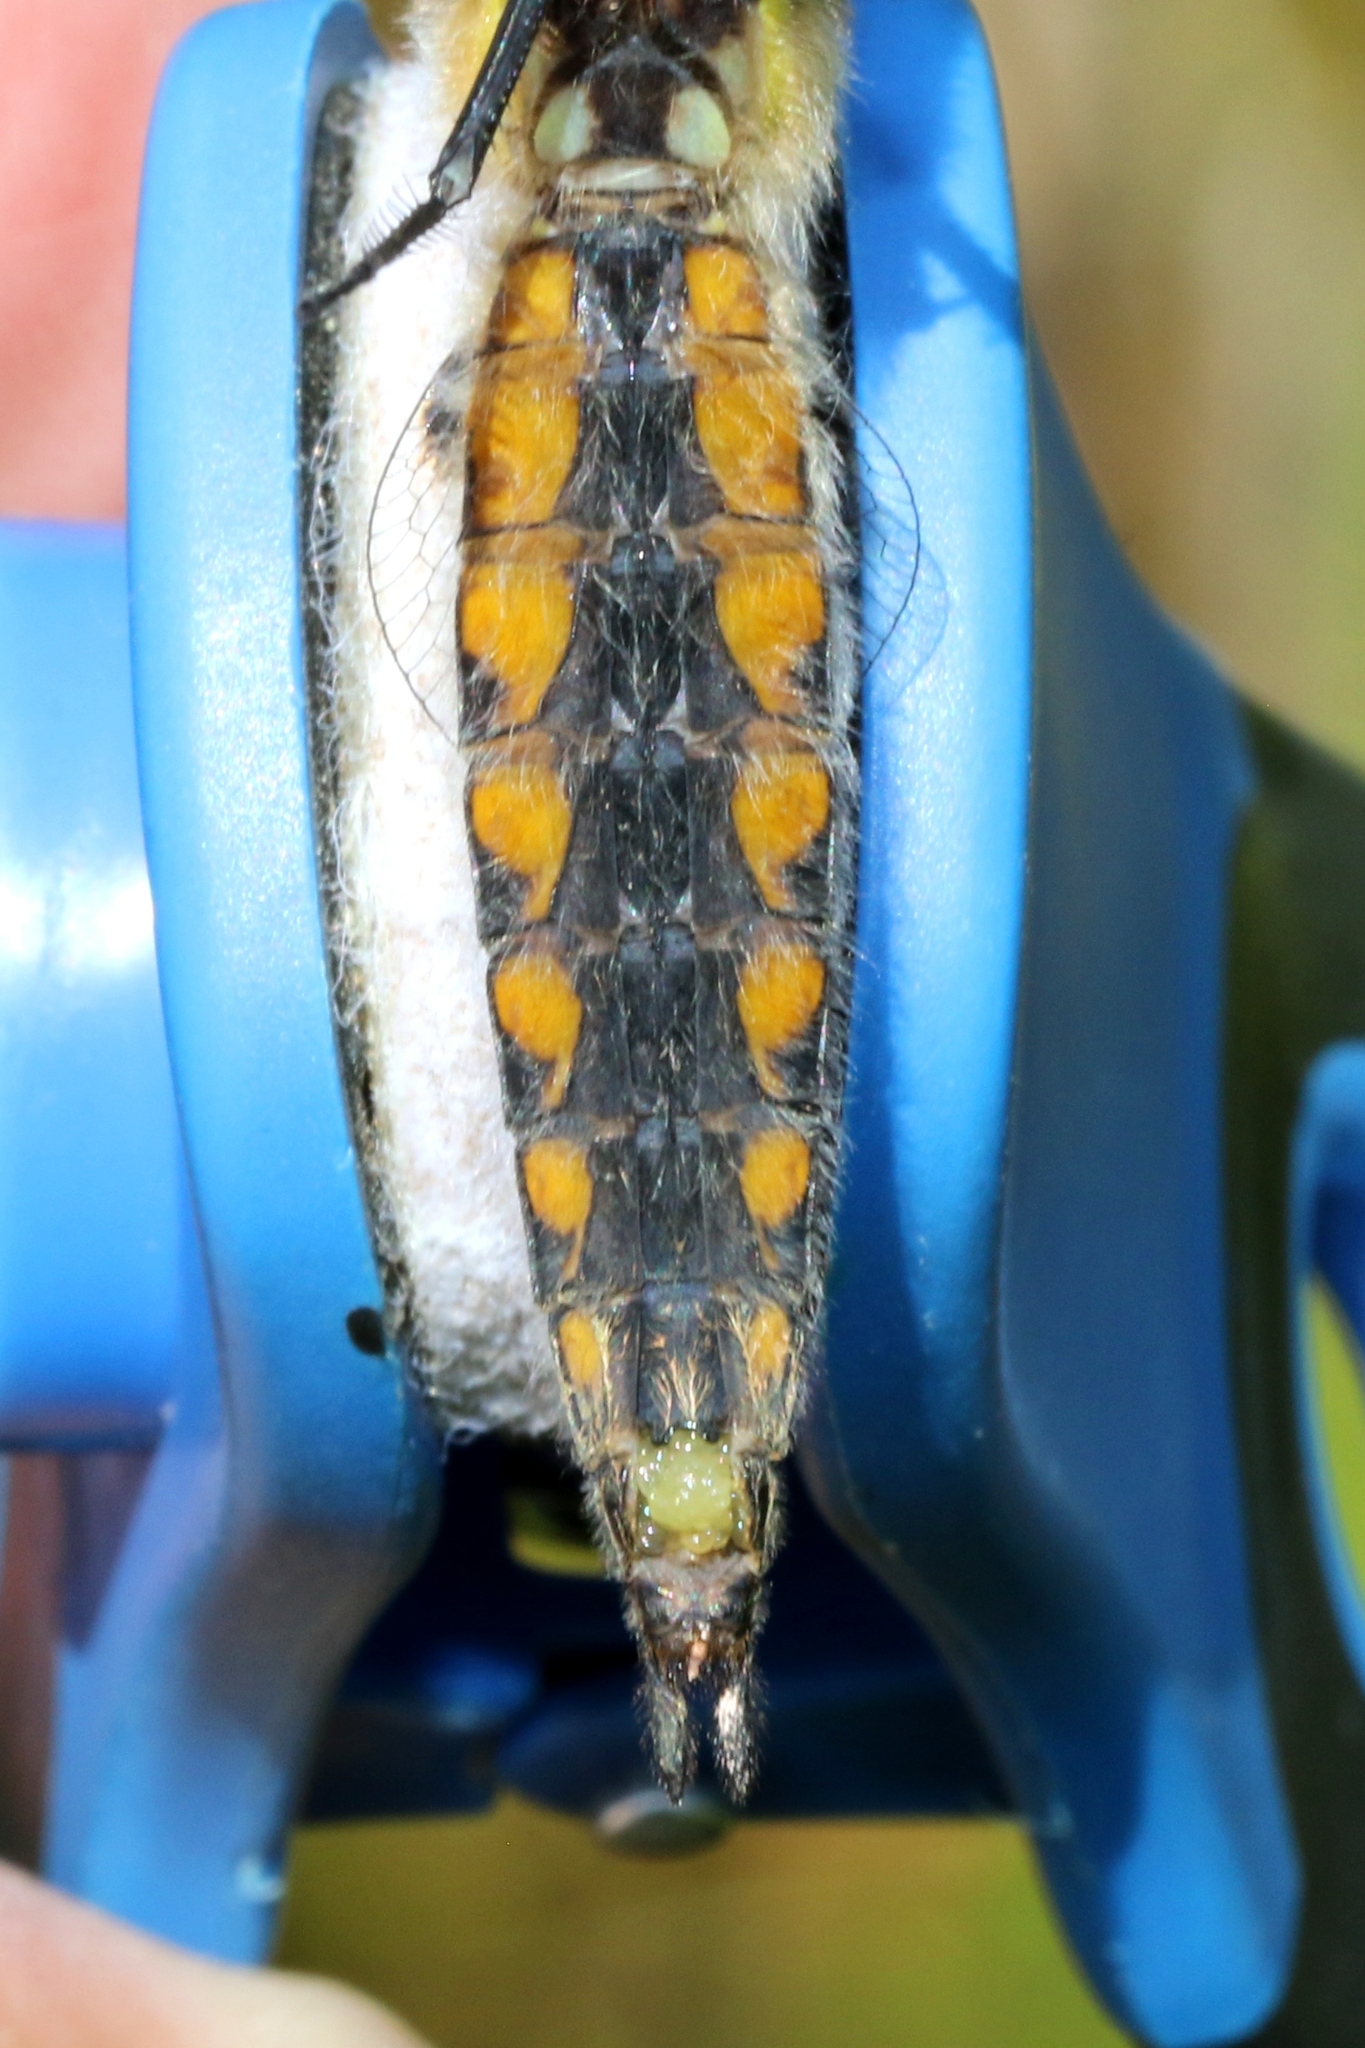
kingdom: Animalia
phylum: Arthropoda
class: Insecta
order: Odonata
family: Libellulidae
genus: Libellula
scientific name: Libellula quadrimaculata
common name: Four-spotted chaser
